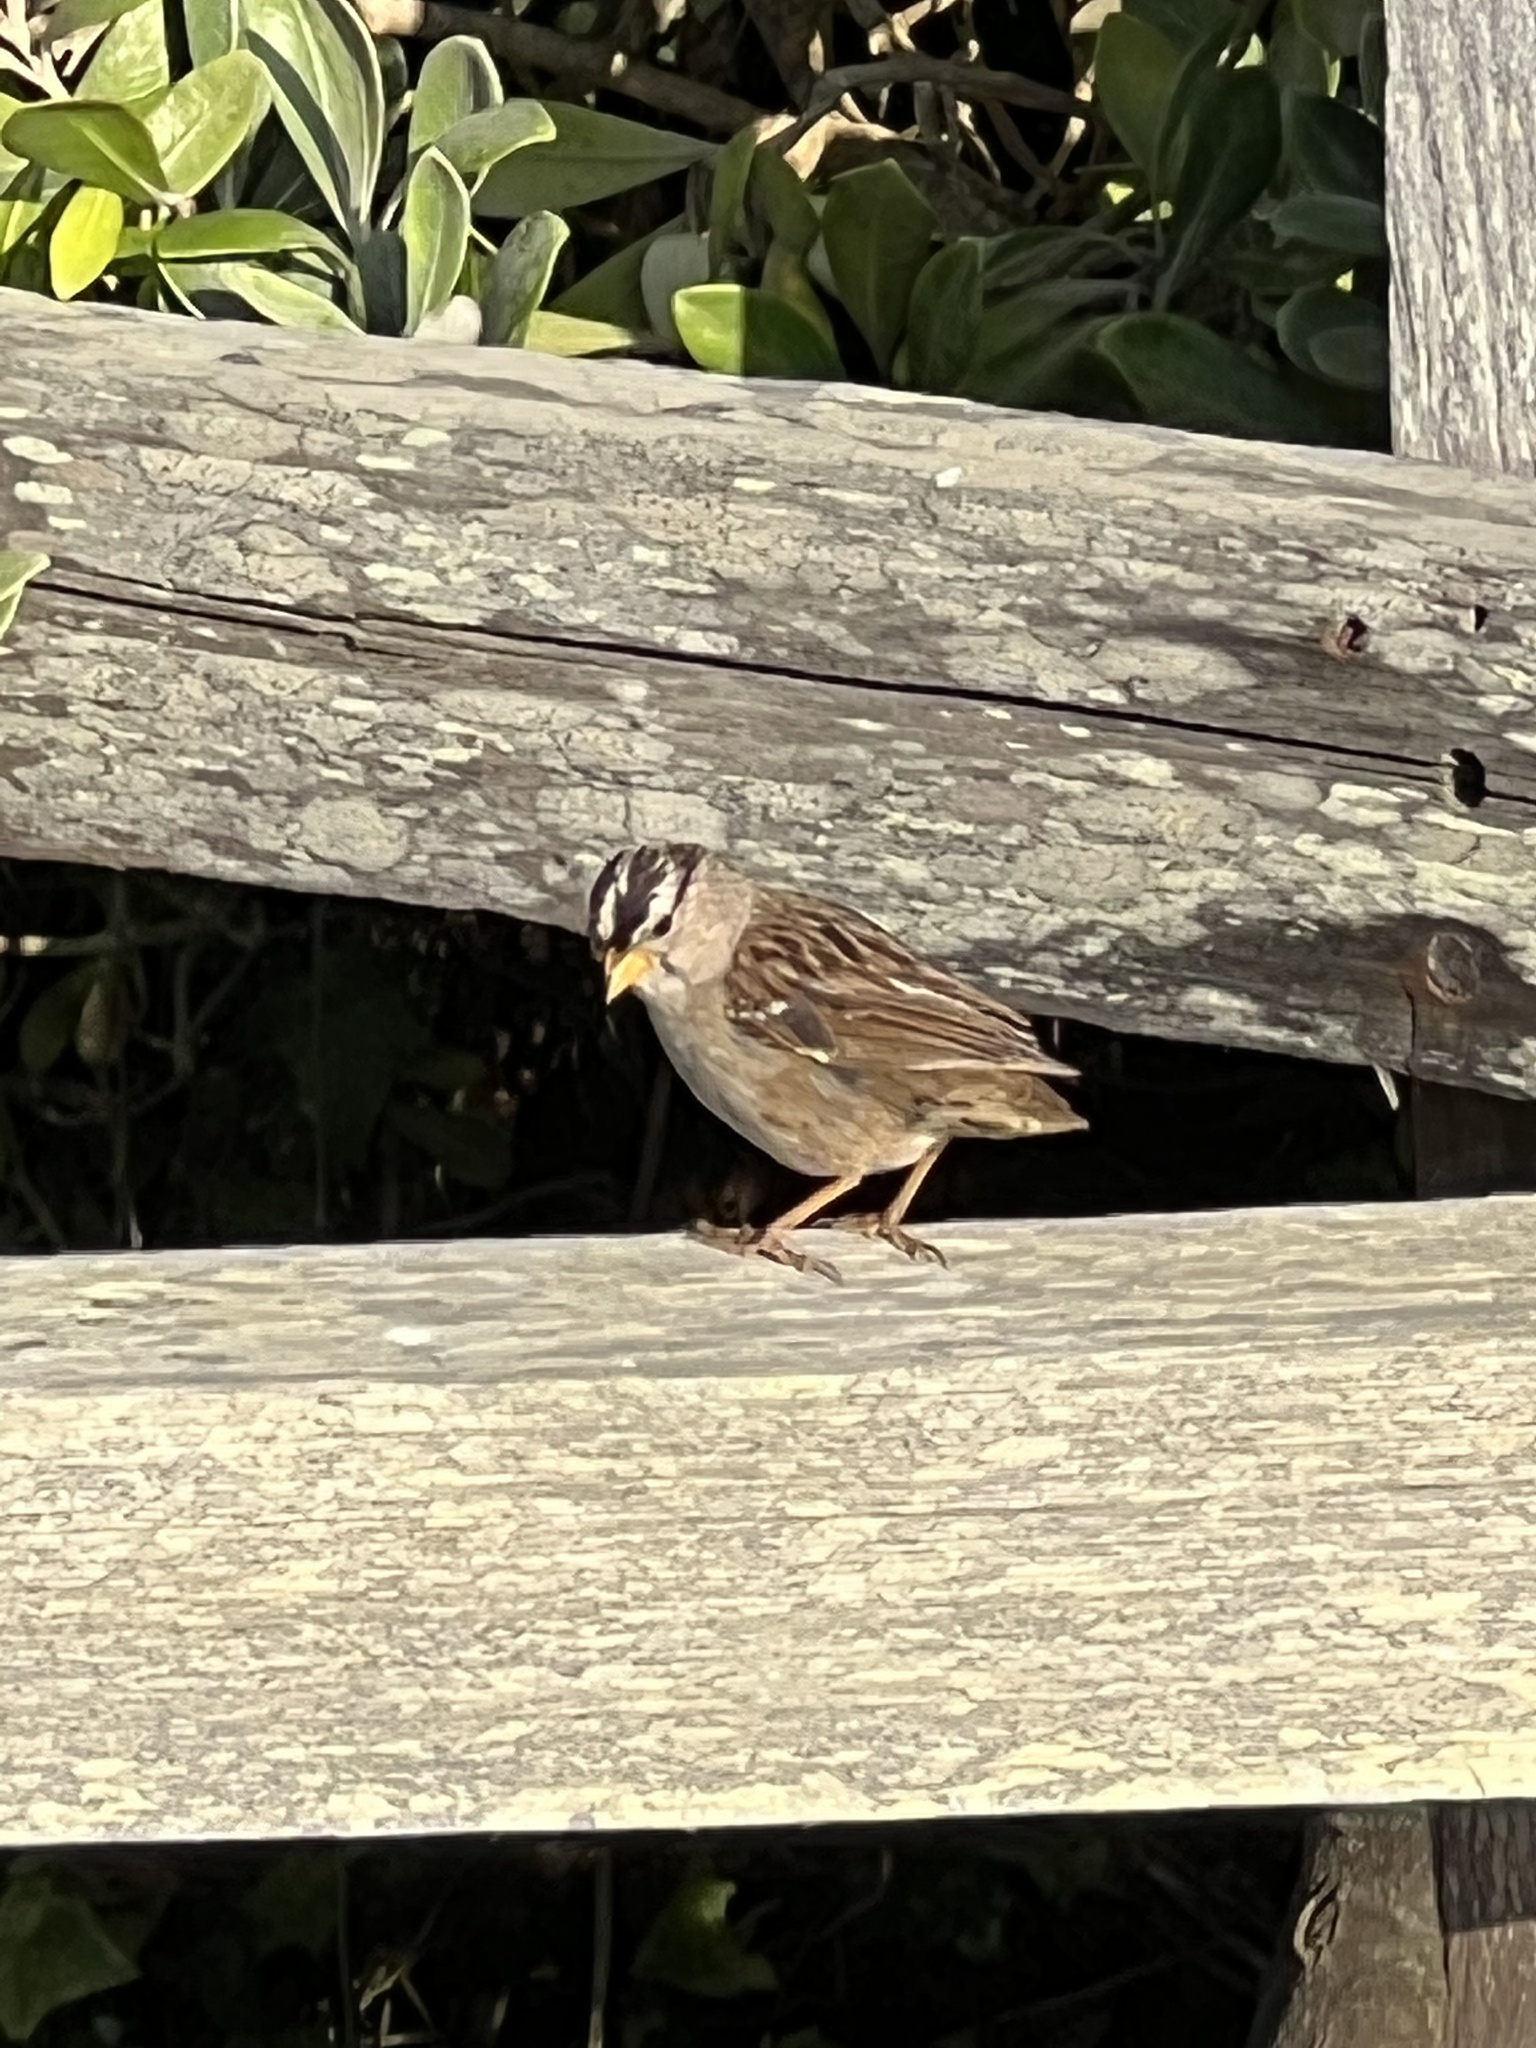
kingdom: Animalia
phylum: Chordata
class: Aves
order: Passeriformes
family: Passerellidae
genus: Zonotrichia
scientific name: Zonotrichia leucophrys
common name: White-crowned sparrow
